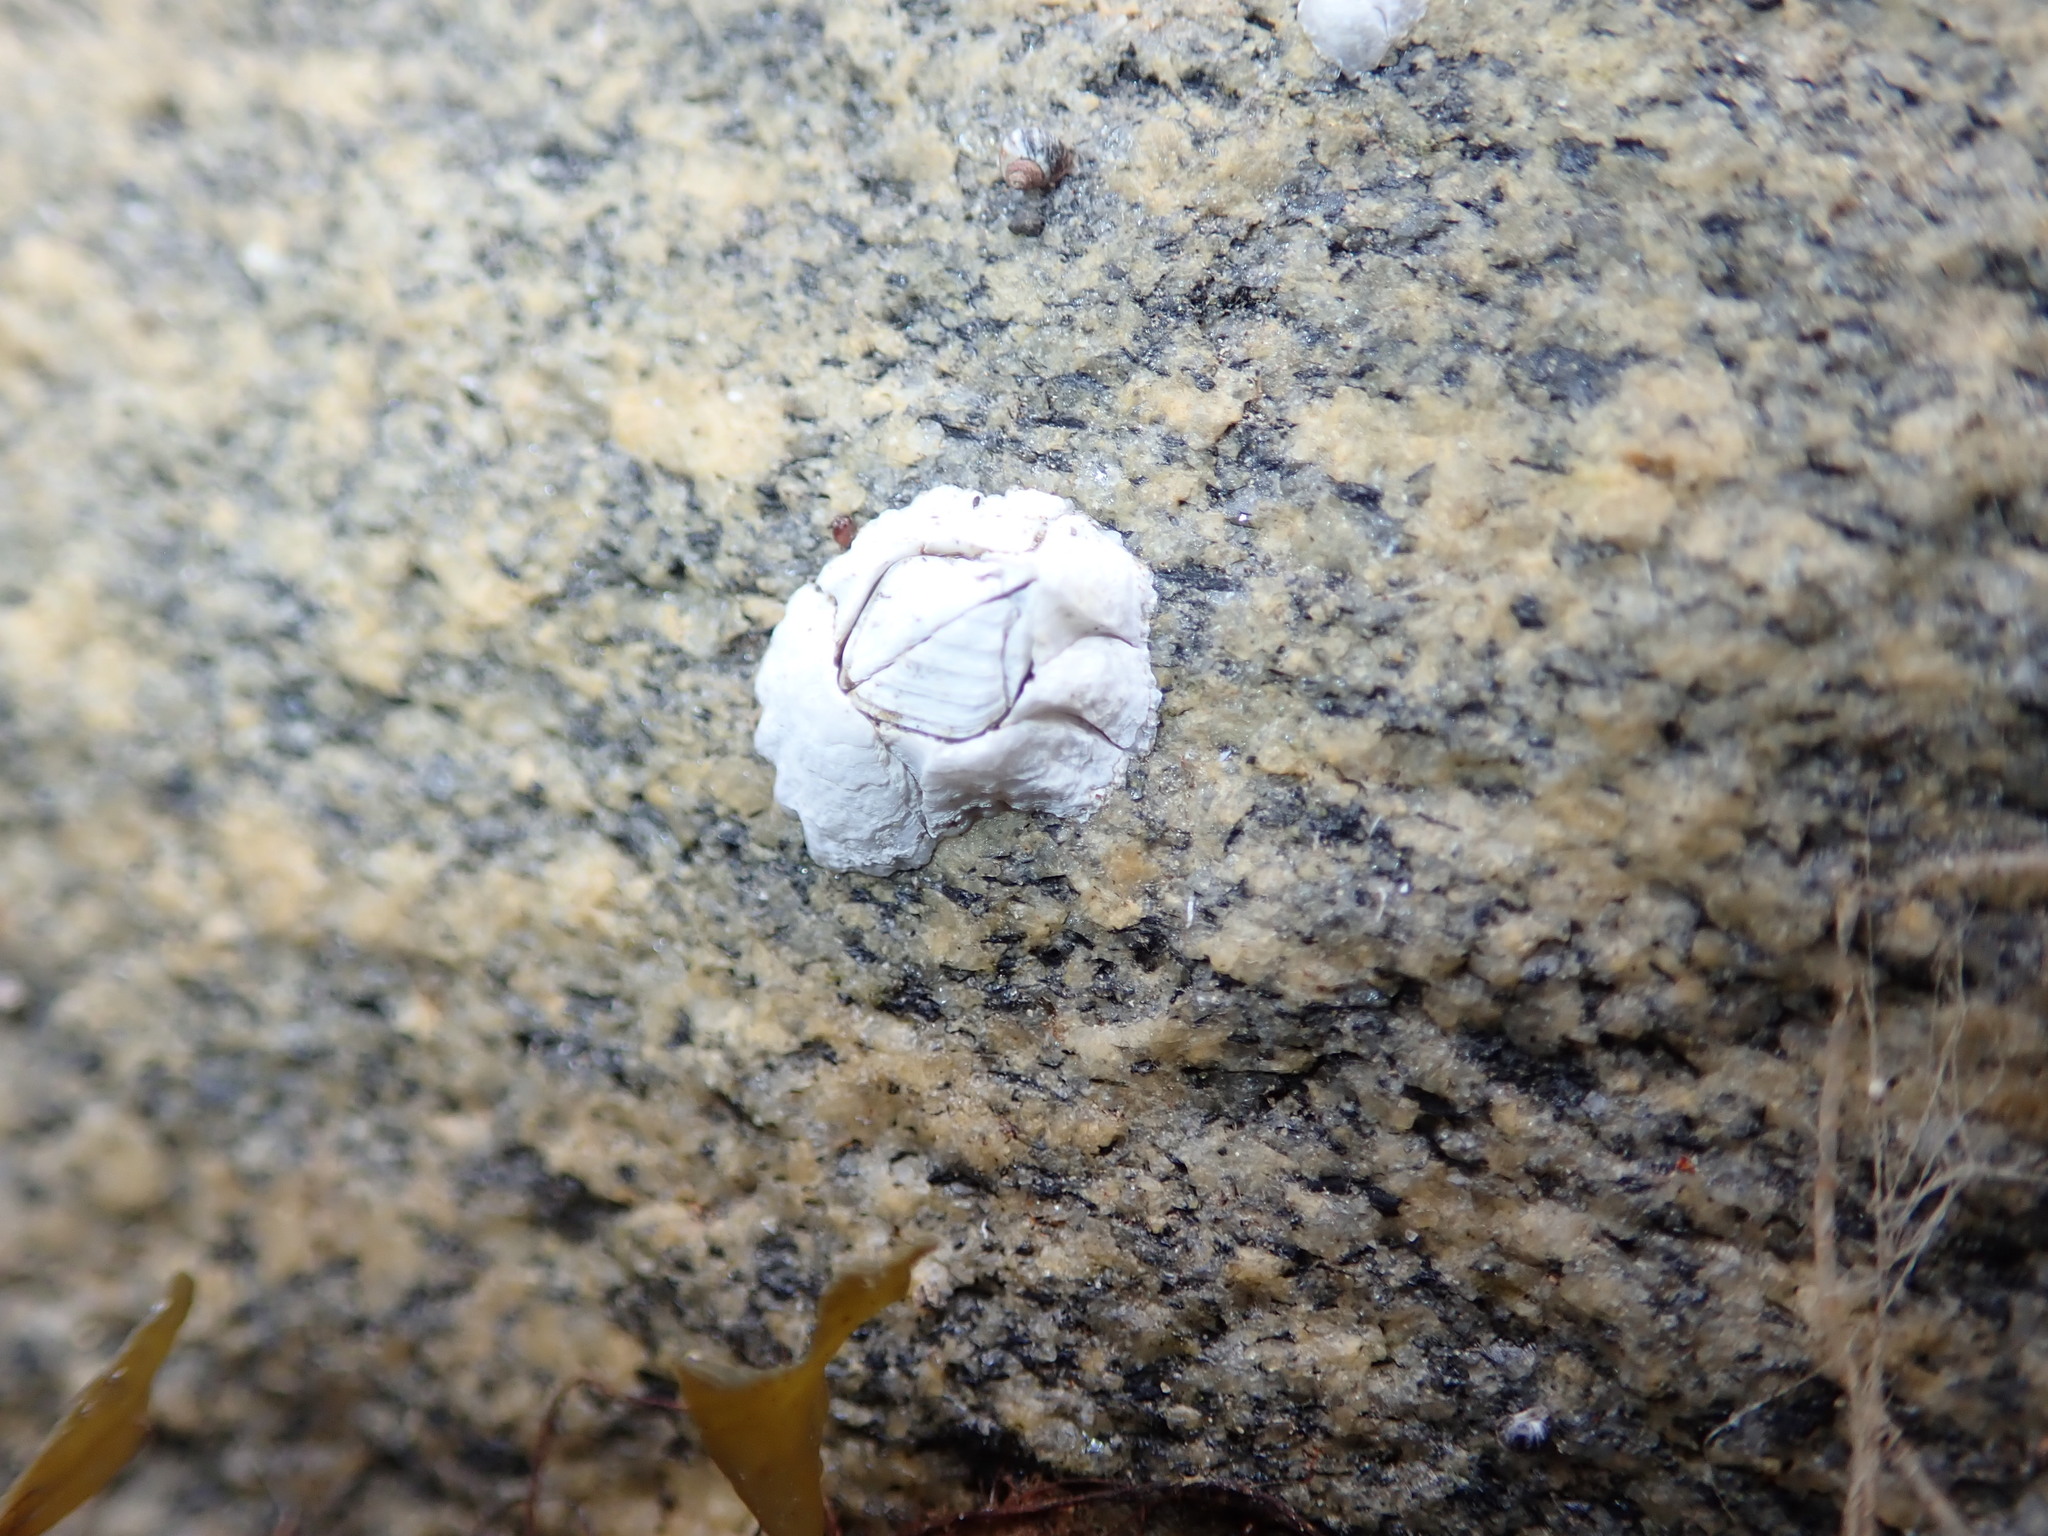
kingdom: Animalia
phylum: Arthropoda
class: Maxillopoda
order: Sessilia
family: Archaeobalanidae
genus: Semibalanus
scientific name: Semibalanus balanoides
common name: Acorn barnacle
